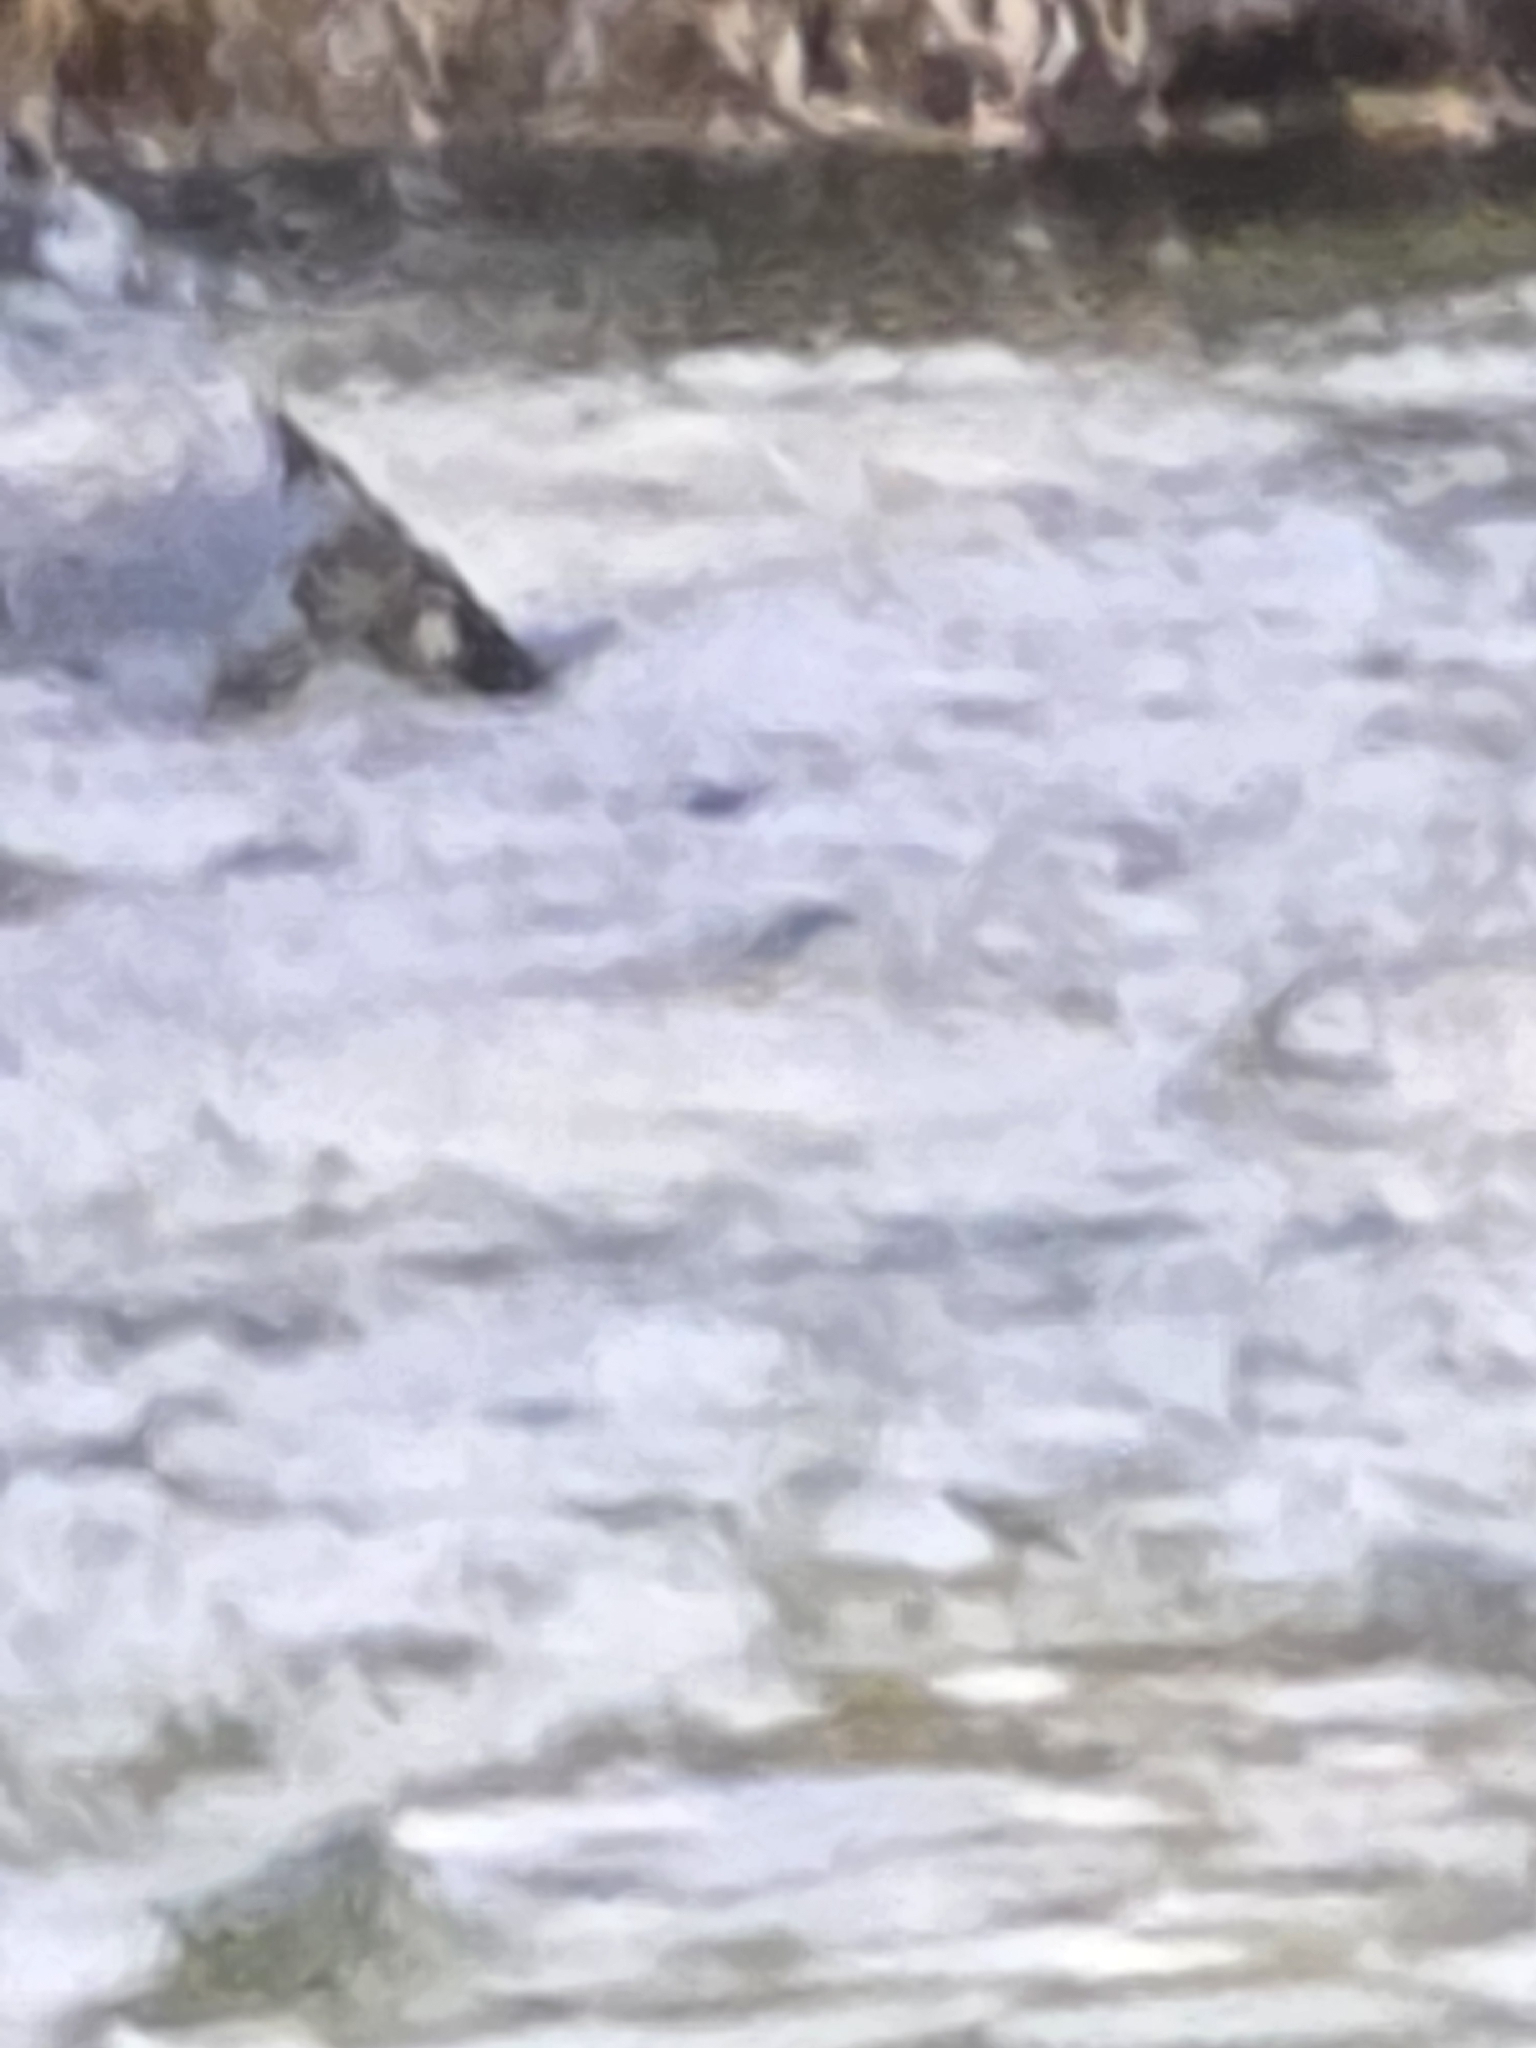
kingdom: Animalia
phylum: Chordata
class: Aves
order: Passeriformes
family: Cinclidae
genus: Cinclus
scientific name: Cinclus pallasii
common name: Brown dipper
